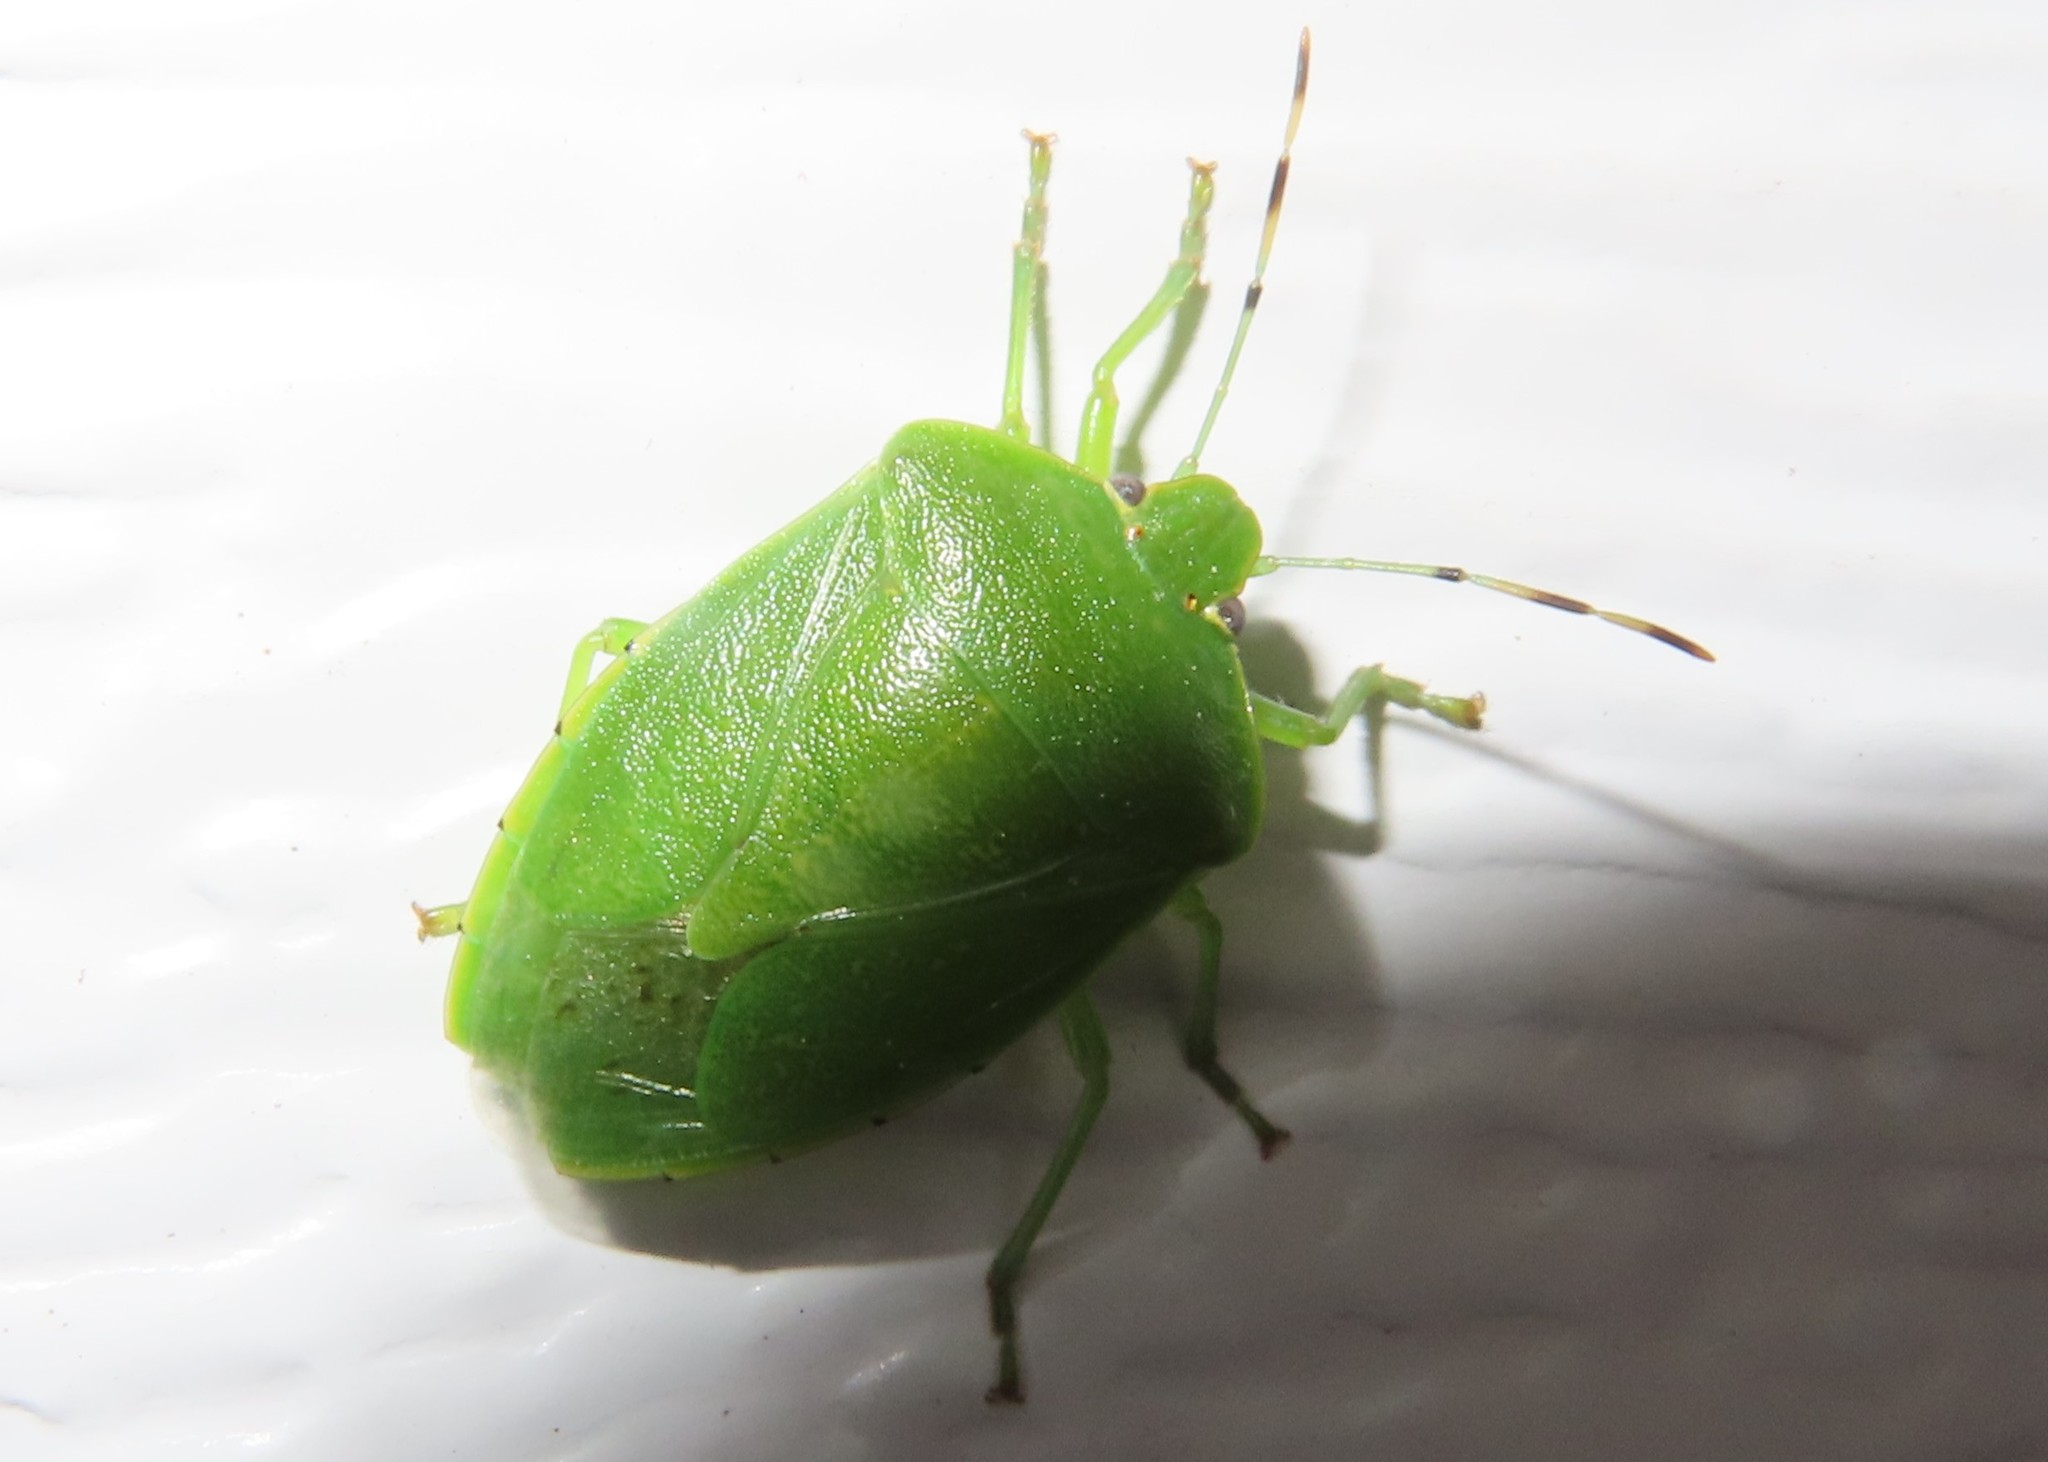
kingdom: Animalia
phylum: Arthropoda
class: Insecta
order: Hemiptera
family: Pentatomidae
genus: Chinavia
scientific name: Chinavia hilaris
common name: Green stink bug
